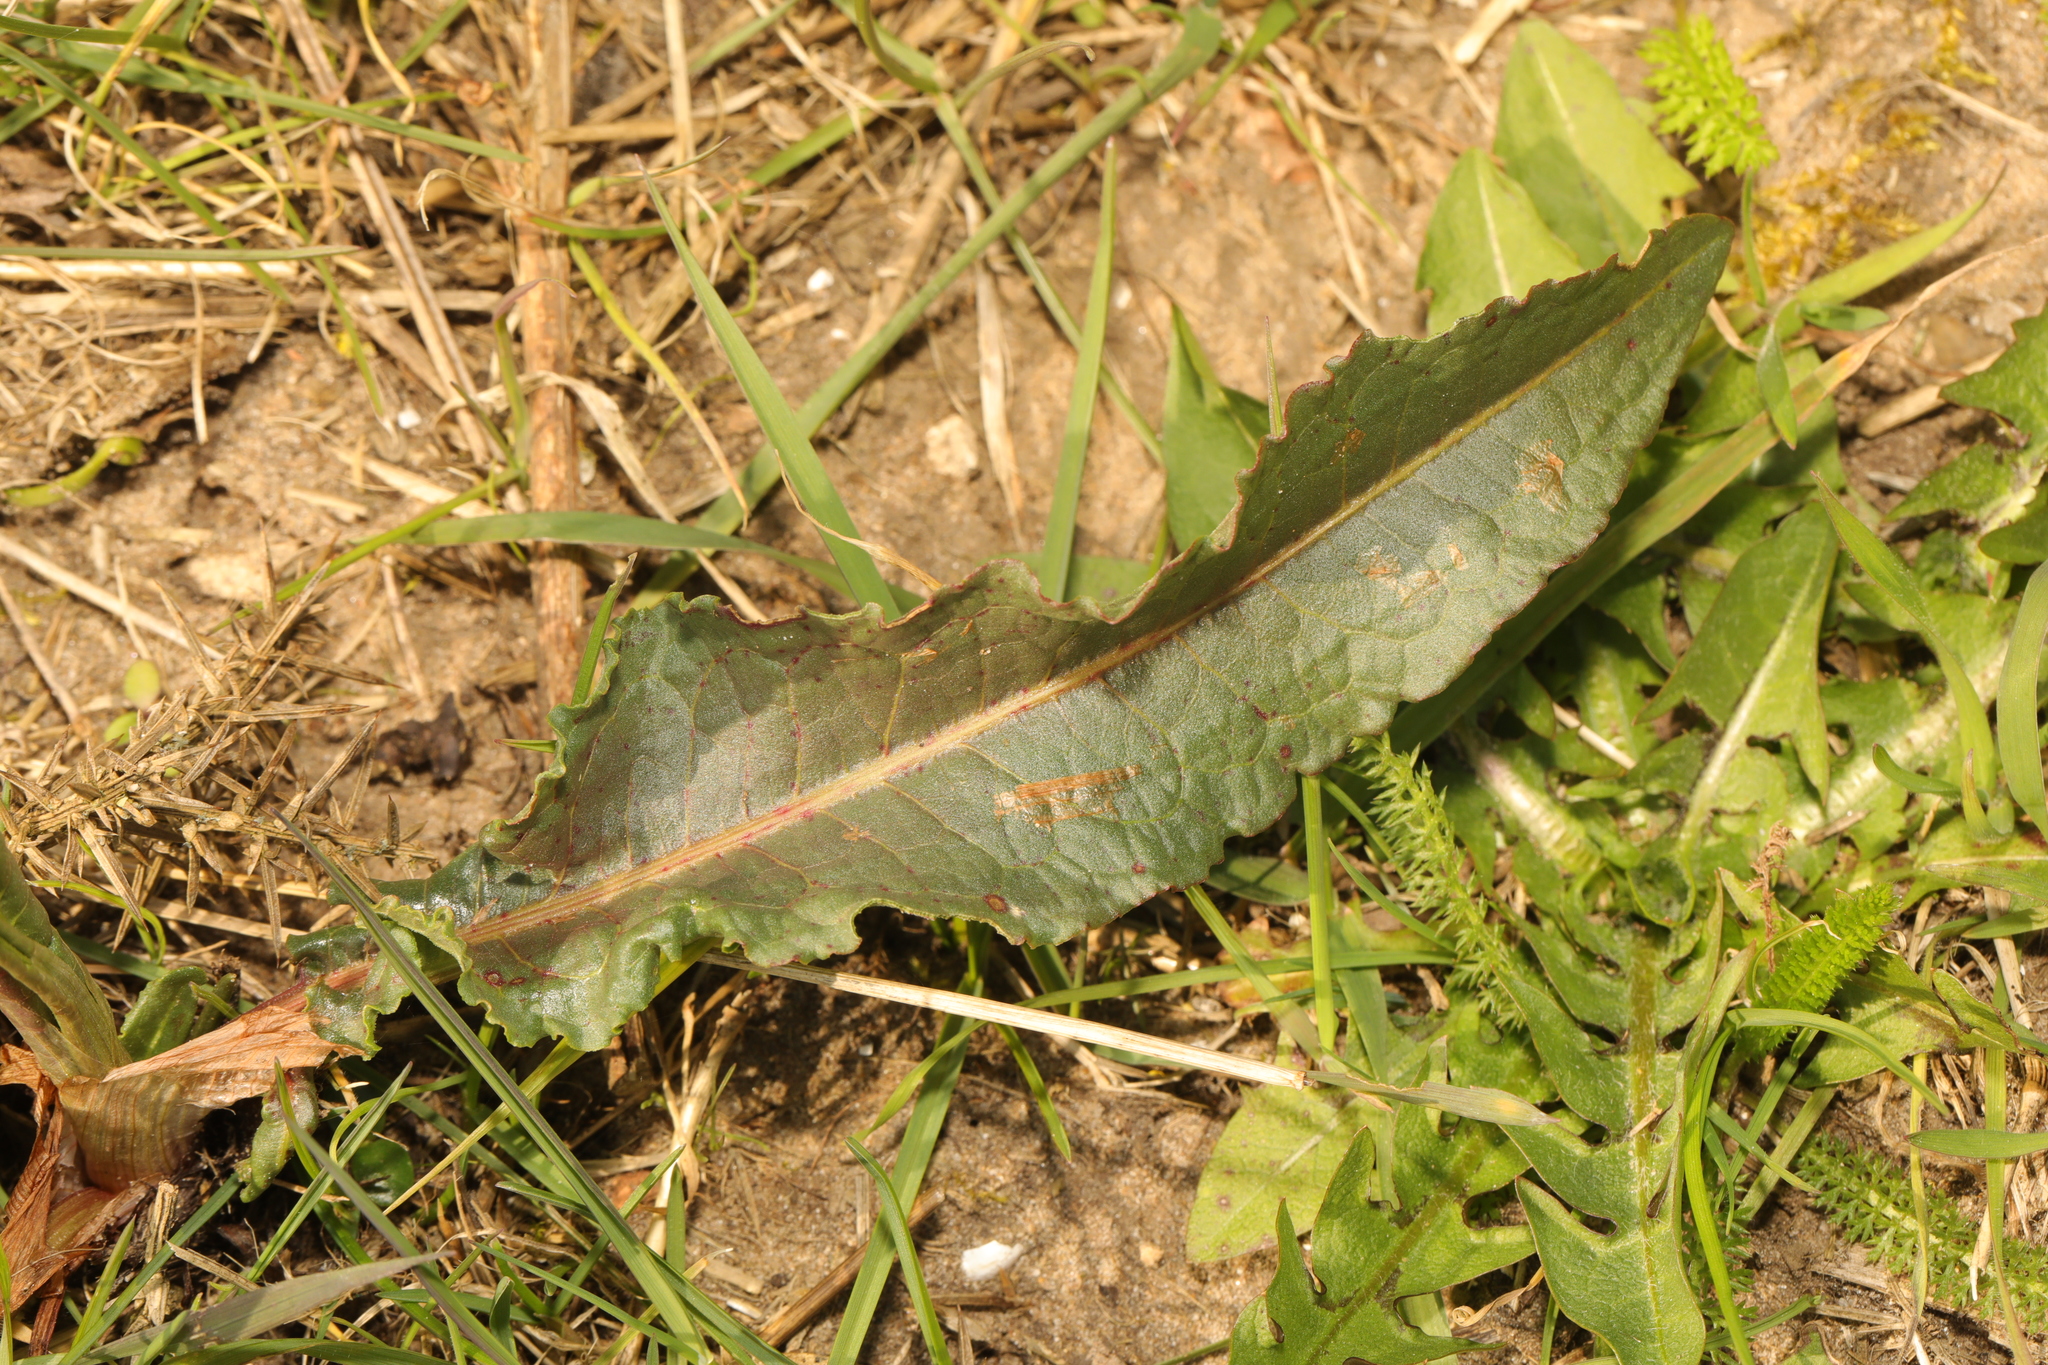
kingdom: Plantae
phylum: Tracheophyta
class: Magnoliopsida
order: Caryophyllales
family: Polygonaceae
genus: Rumex
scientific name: Rumex crispus
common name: Curled dock
